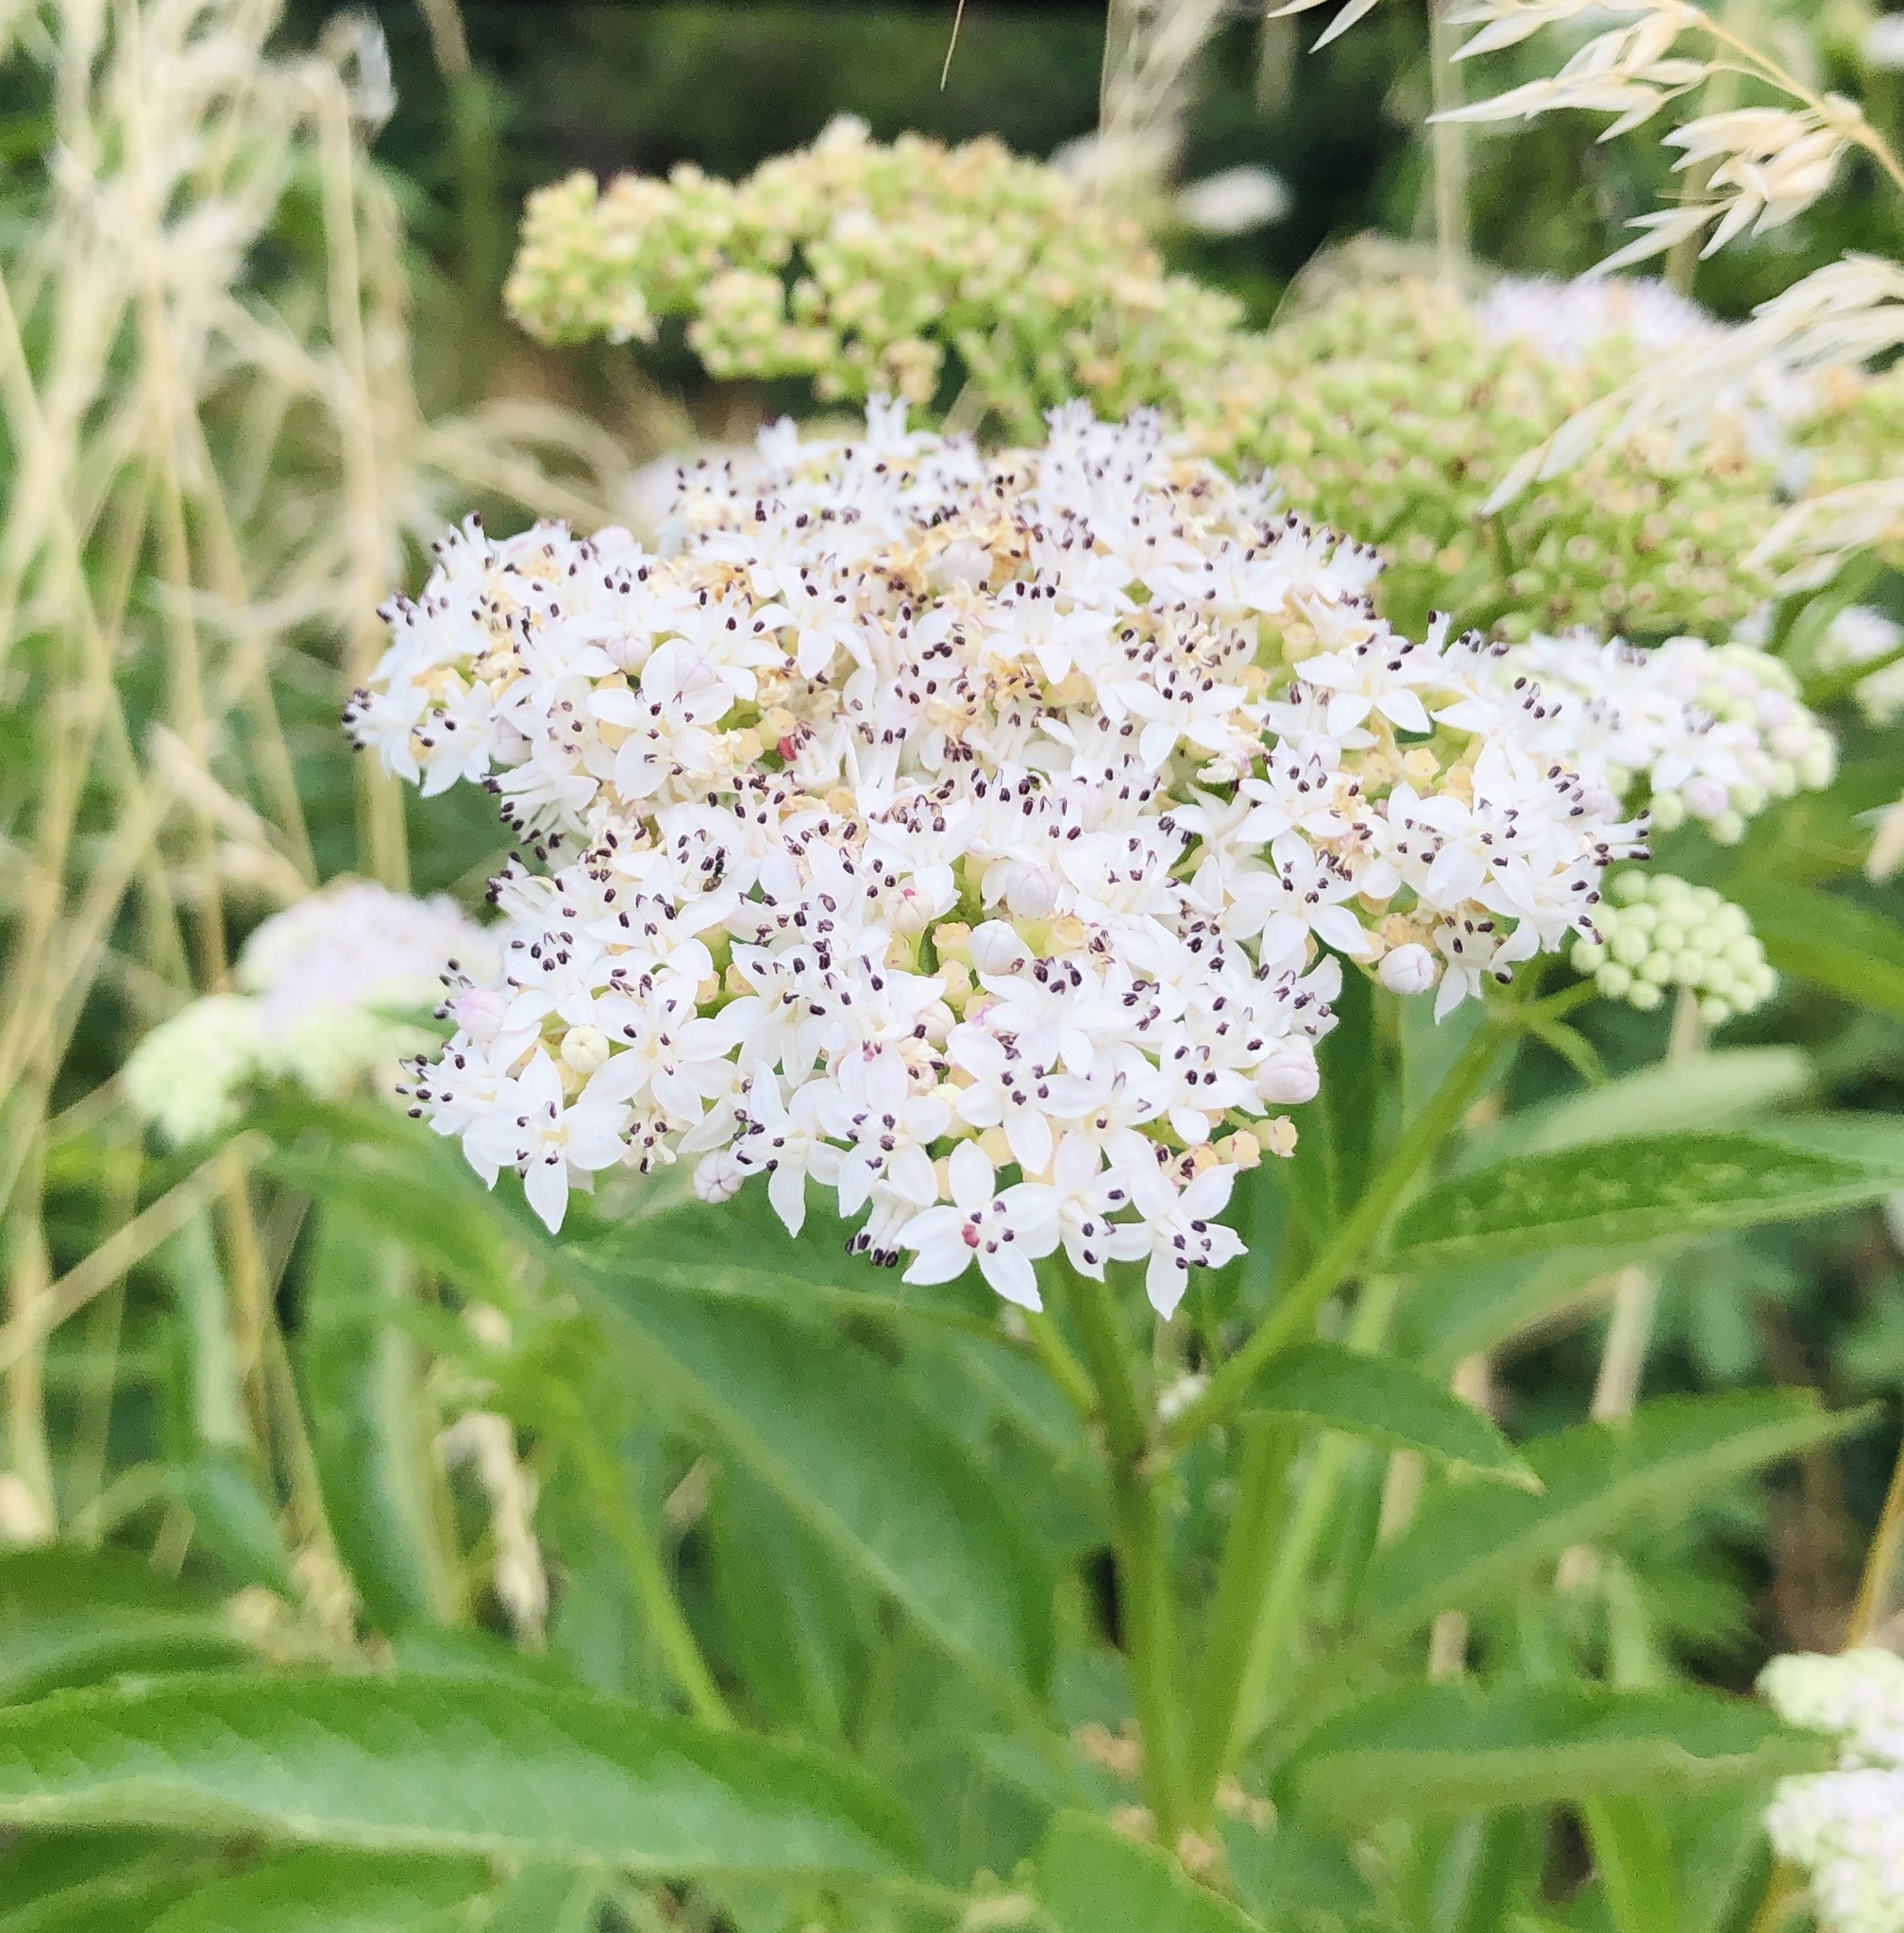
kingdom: Plantae
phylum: Tracheophyta
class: Magnoliopsida
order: Dipsacales
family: Viburnaceae
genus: Sambucus
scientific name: Sambucus ebulus
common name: Dwarf elder
